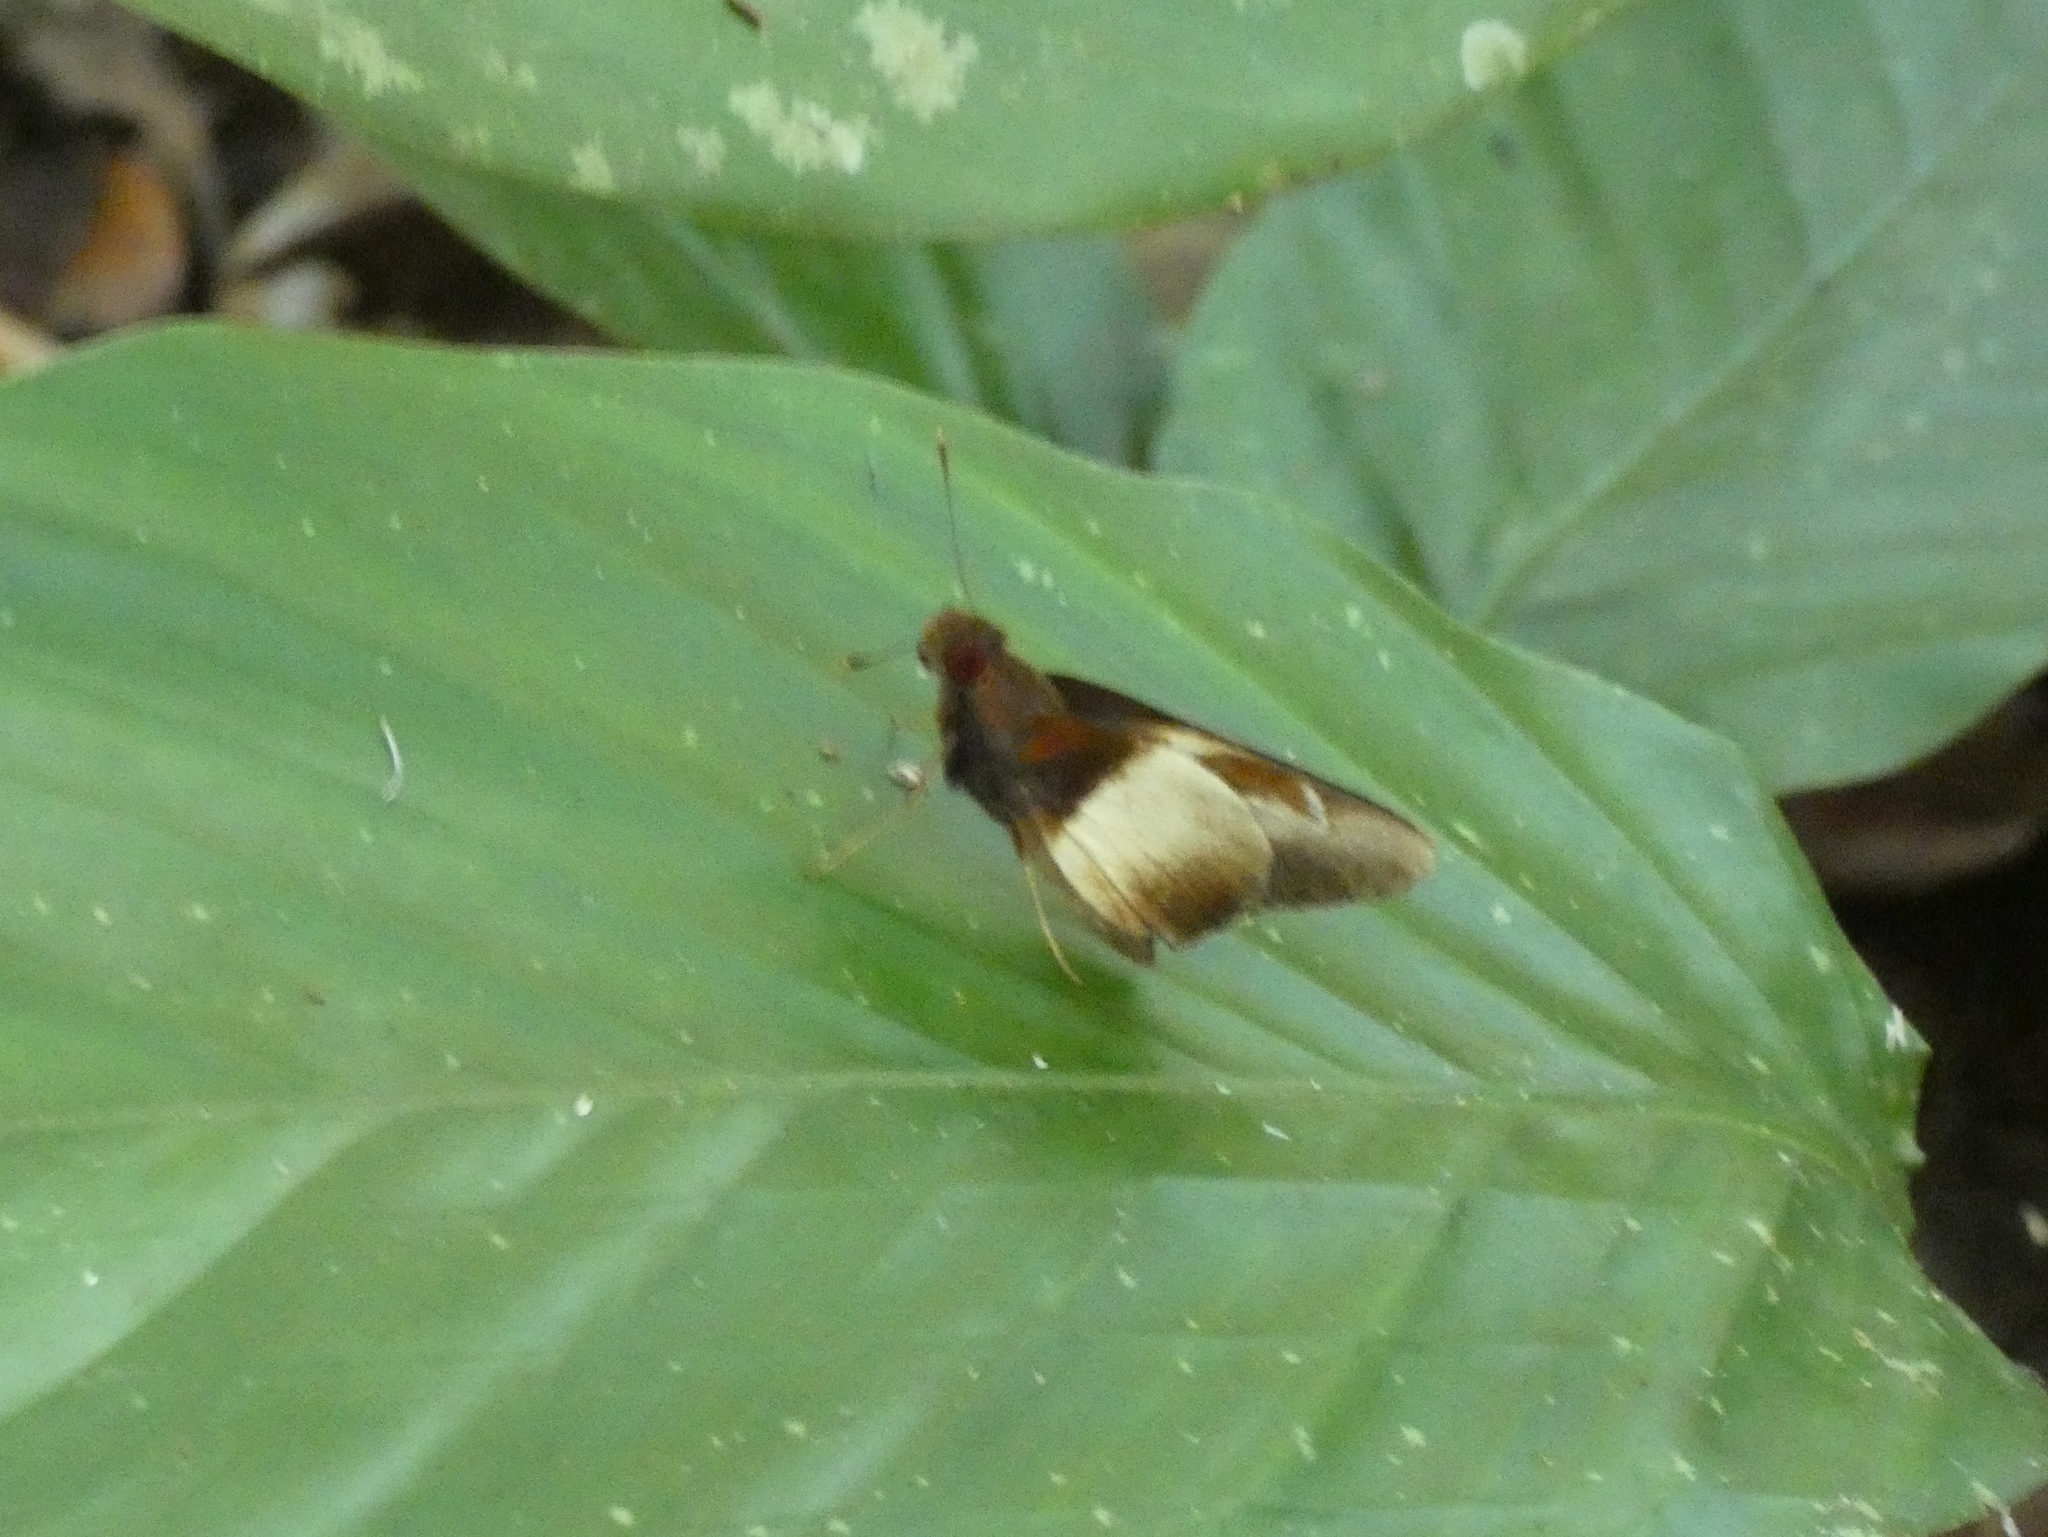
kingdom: Animalia
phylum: Arthropoda
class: Insecta
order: Lepidoptera
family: Hesperiidae
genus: Pteroteinon
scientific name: Pteroteinon caenira
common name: White-banded red-eye
